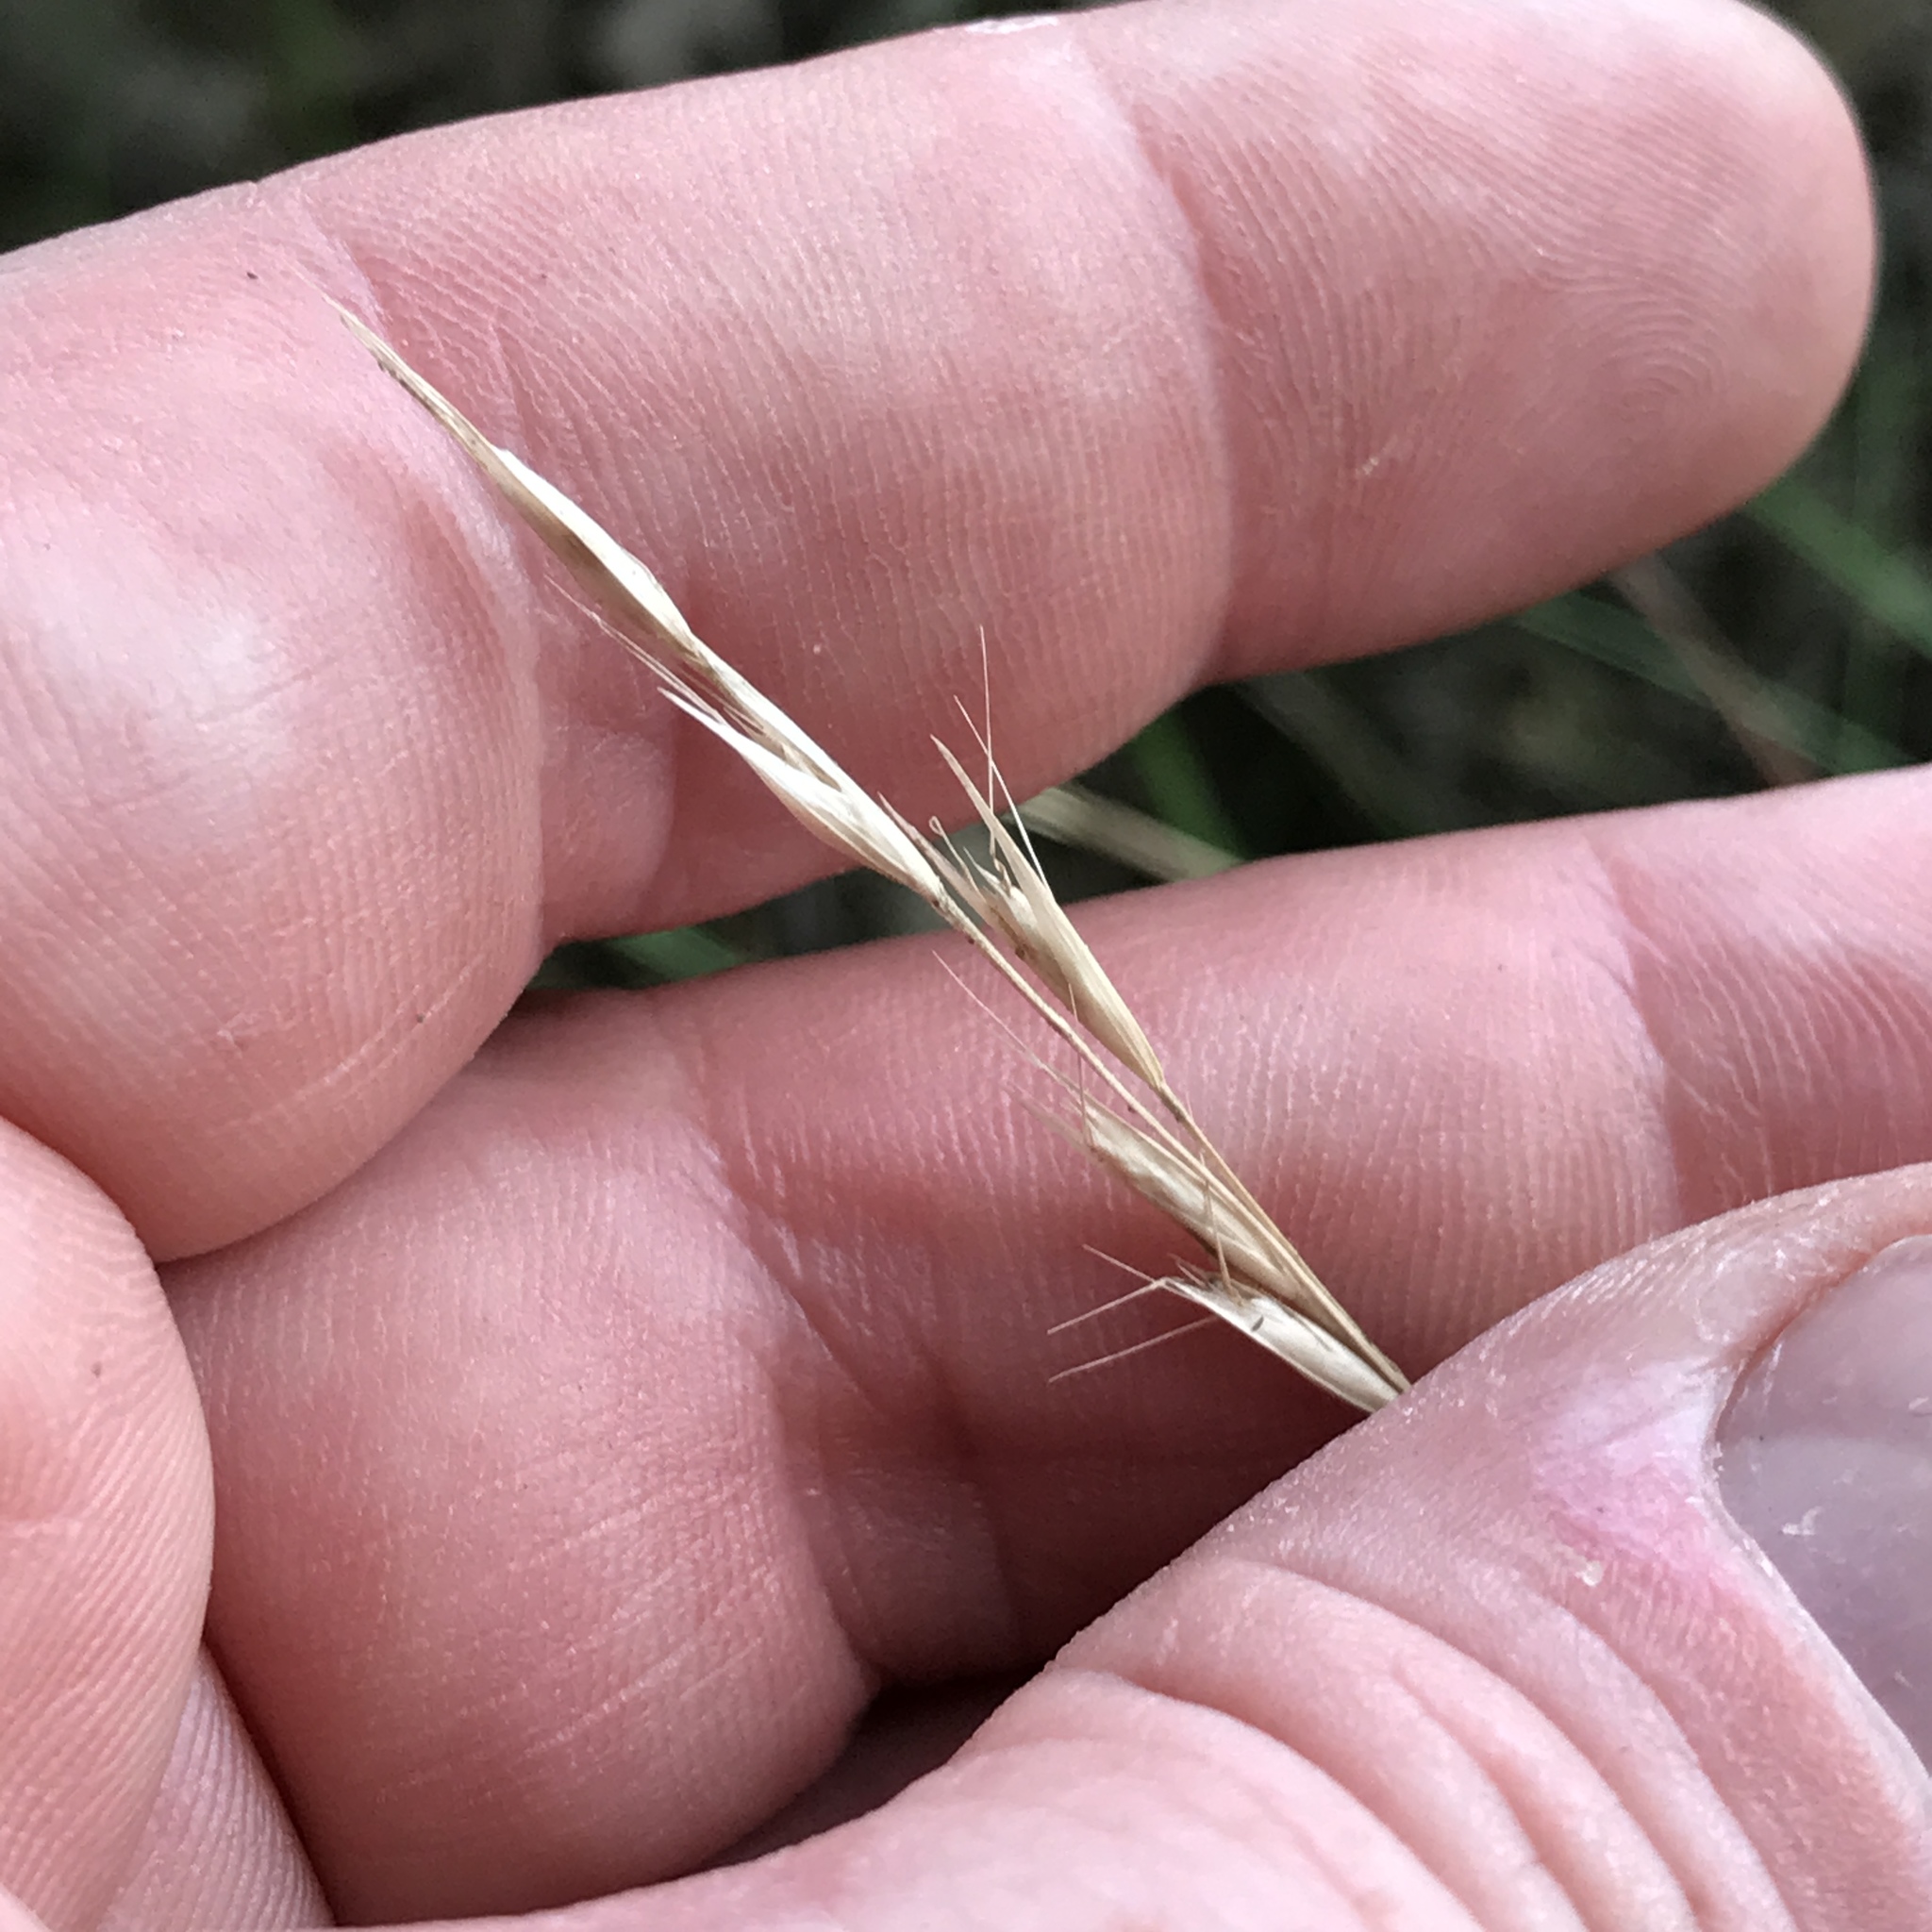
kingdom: Plantae
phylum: Tracheophyta
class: Liliopsida
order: Poales
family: Poaceae
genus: Danthonia
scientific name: Danthonia compressa
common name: Flat-stem oat grass
